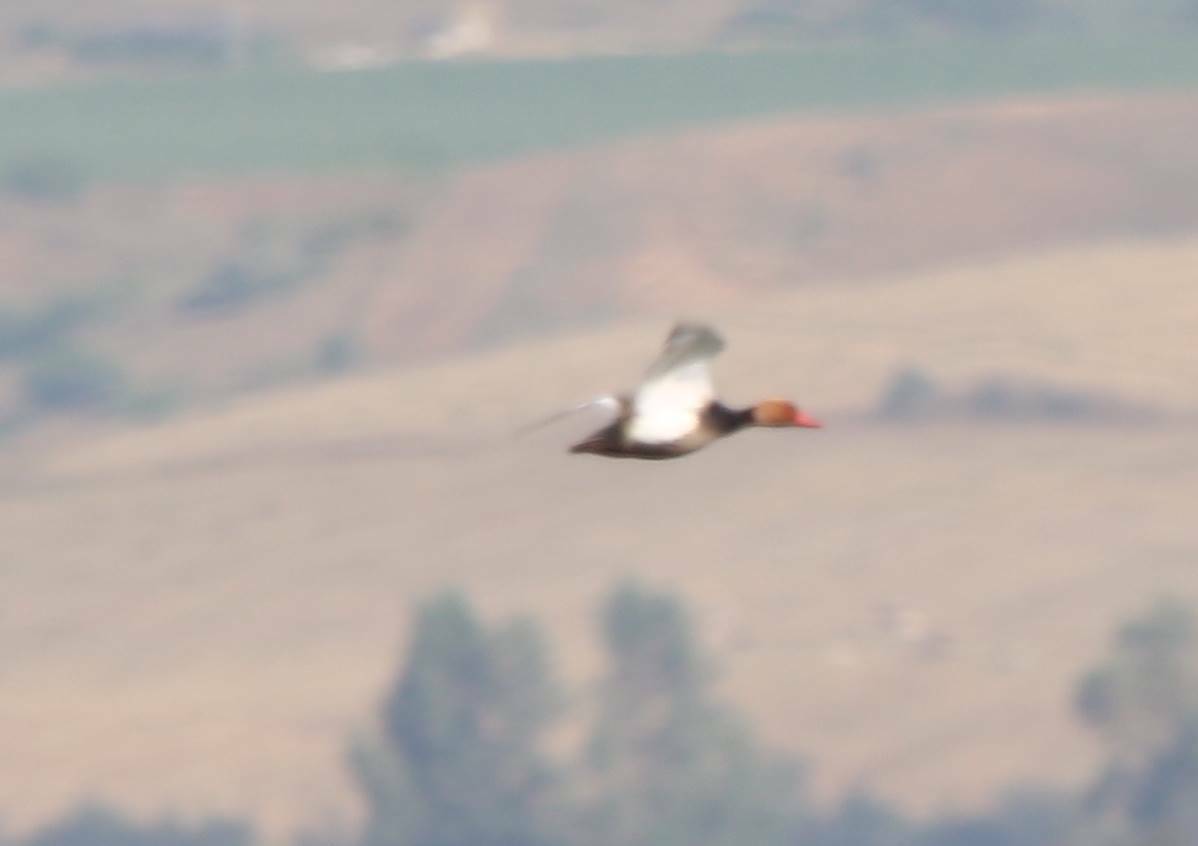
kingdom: Animalia
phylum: Chordata
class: Aves
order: Anseriformes
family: Anatidae
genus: Netta
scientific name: Netta rufina
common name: Red-crested pochard
